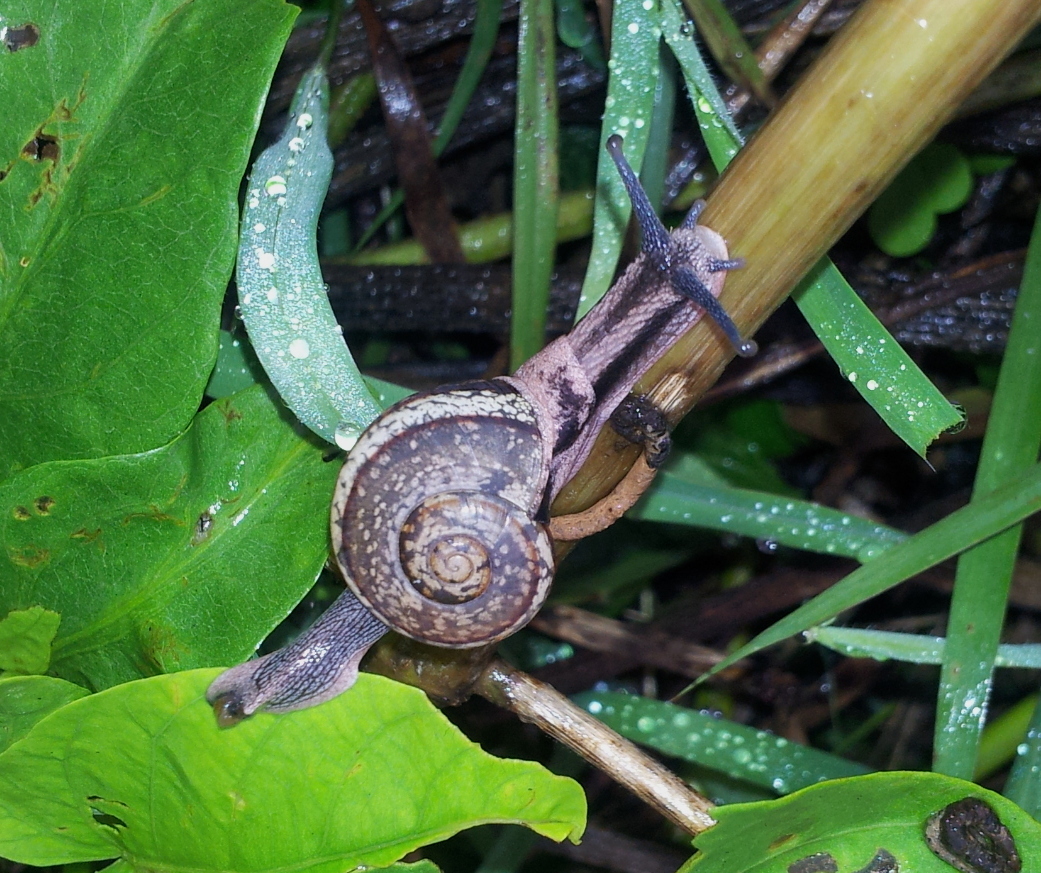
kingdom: Animalia
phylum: Mollusca
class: Gastropoda
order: Stylommatophora
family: Ariophantidae
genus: Ariophanta
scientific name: Ariophanta exilis
